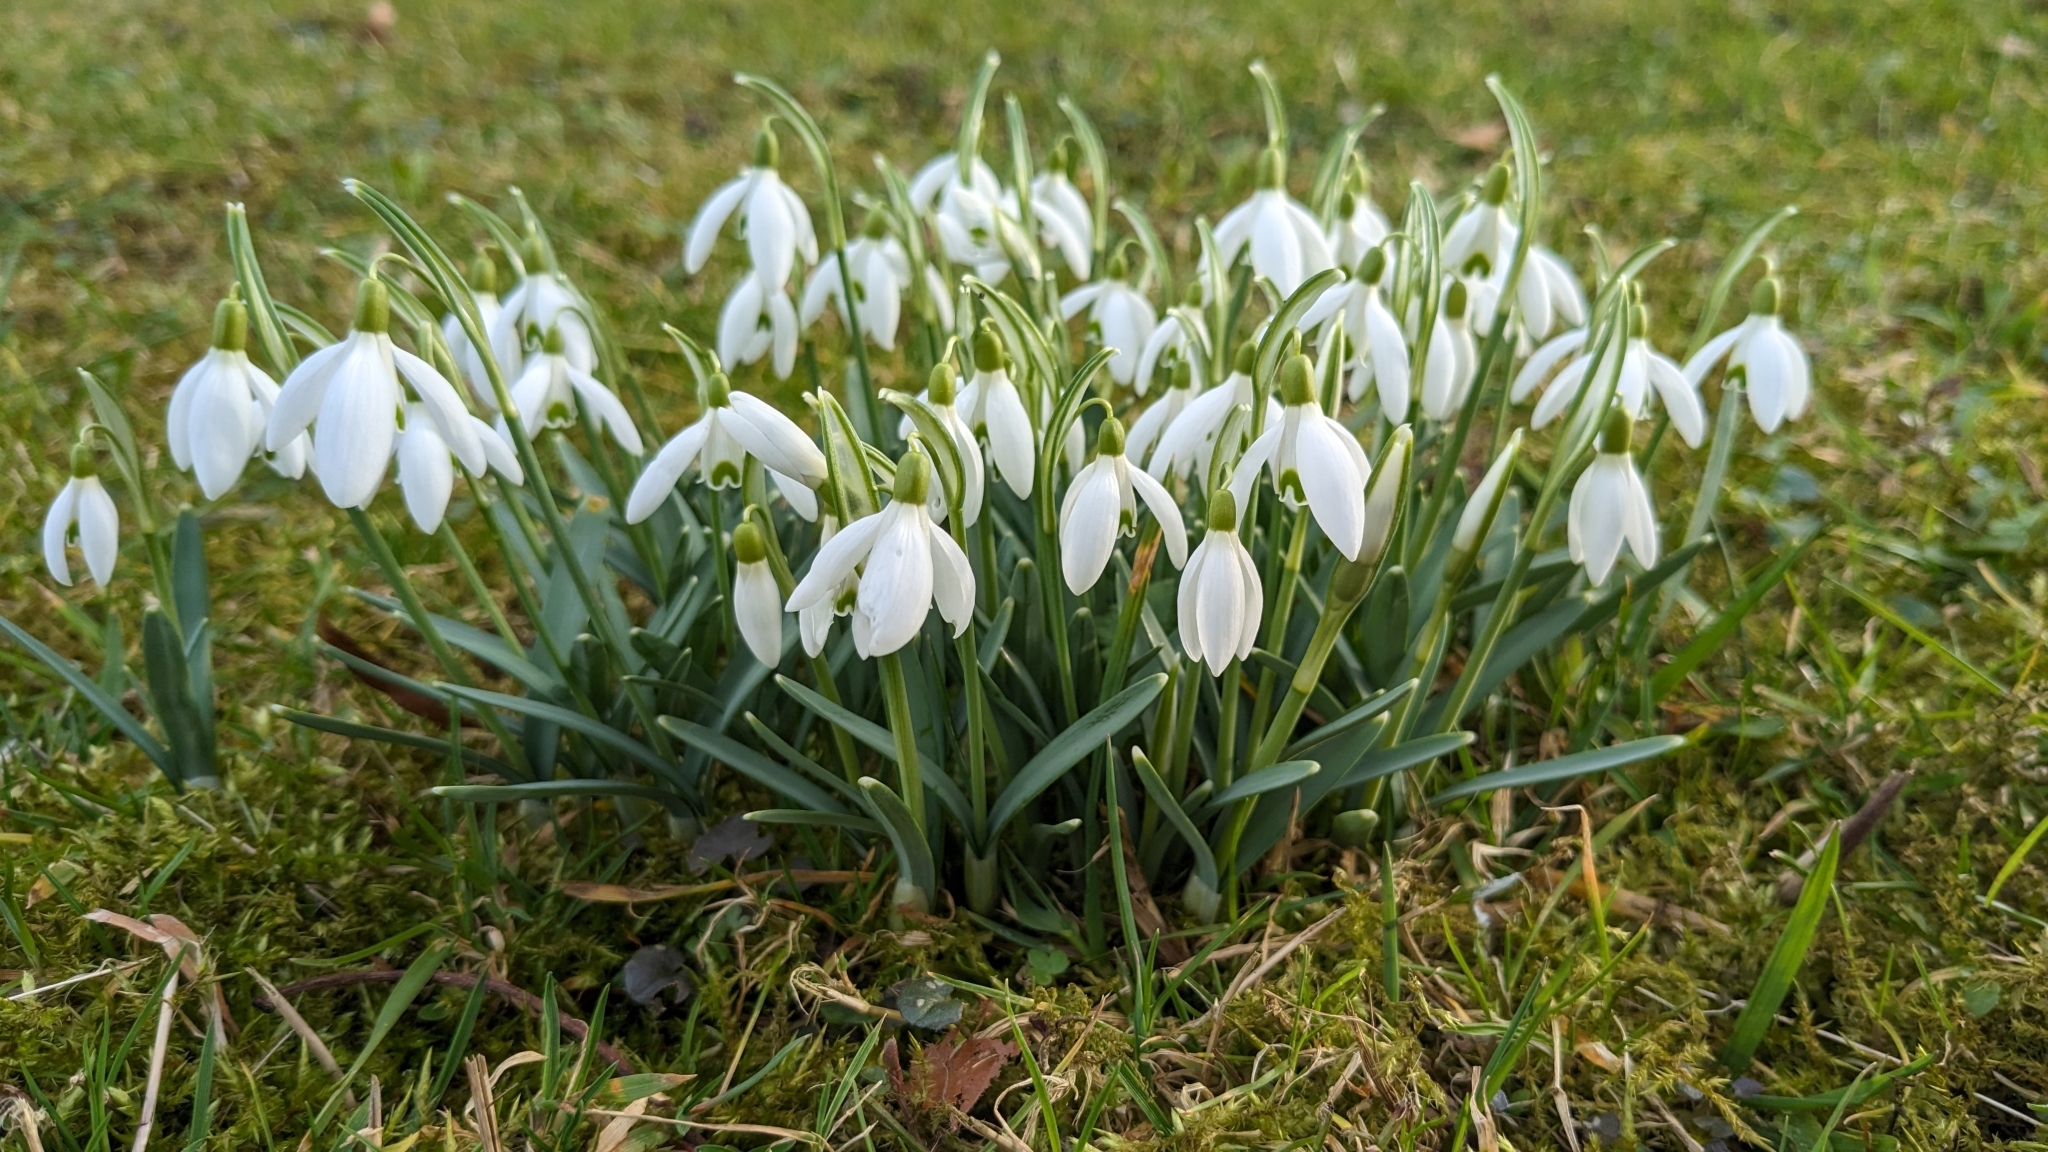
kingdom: Plantae
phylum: Tracheophyta
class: Liliopsida
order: Asparagales
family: Amaryllidaceae
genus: Galanthus
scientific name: Galanthus nivalis
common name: Snowdrop
